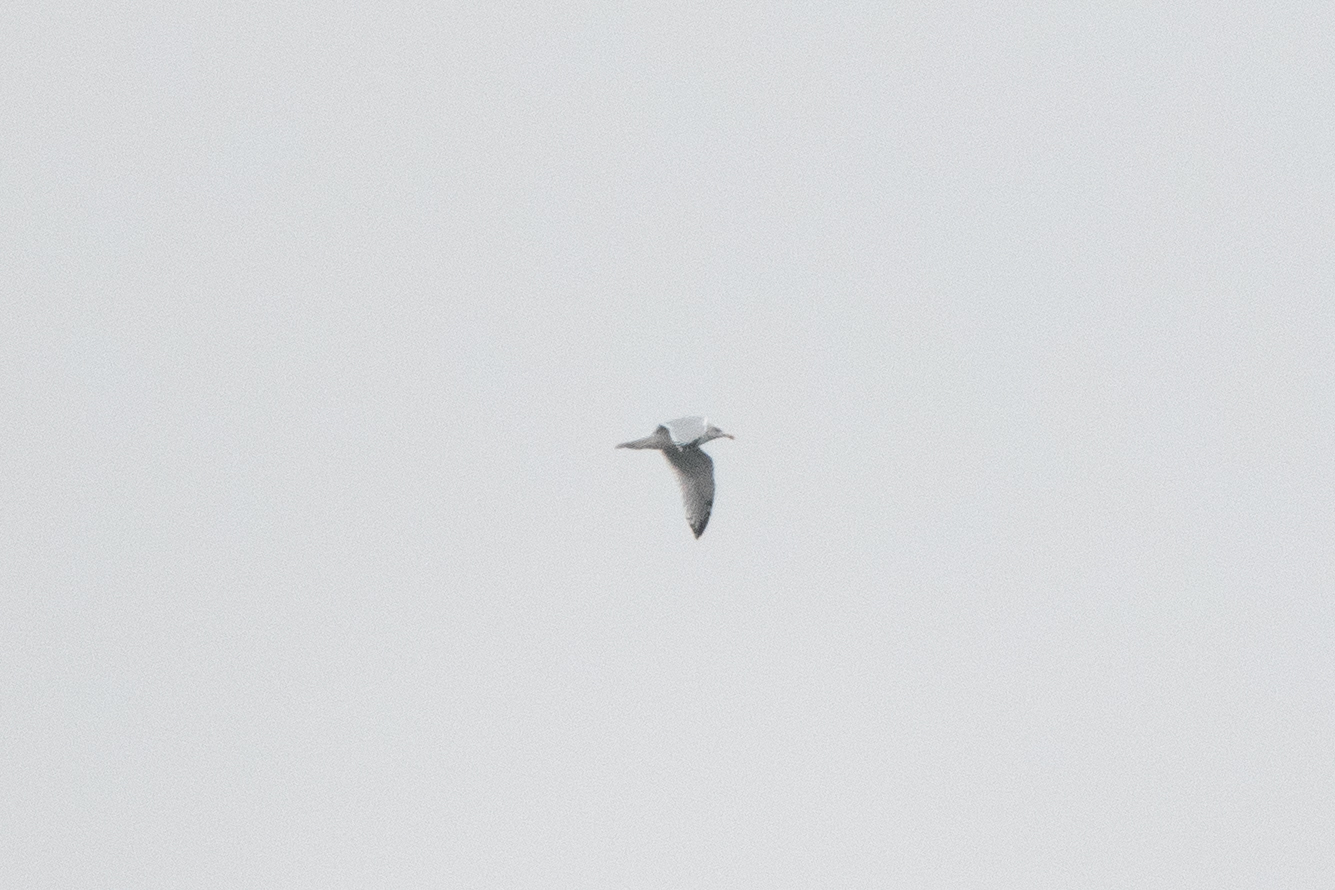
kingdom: Animalia
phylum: Chordata
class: Aves
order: Charadriiformes
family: Laridae
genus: Larus
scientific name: Larus delawarensis
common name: Ring-billed gull
